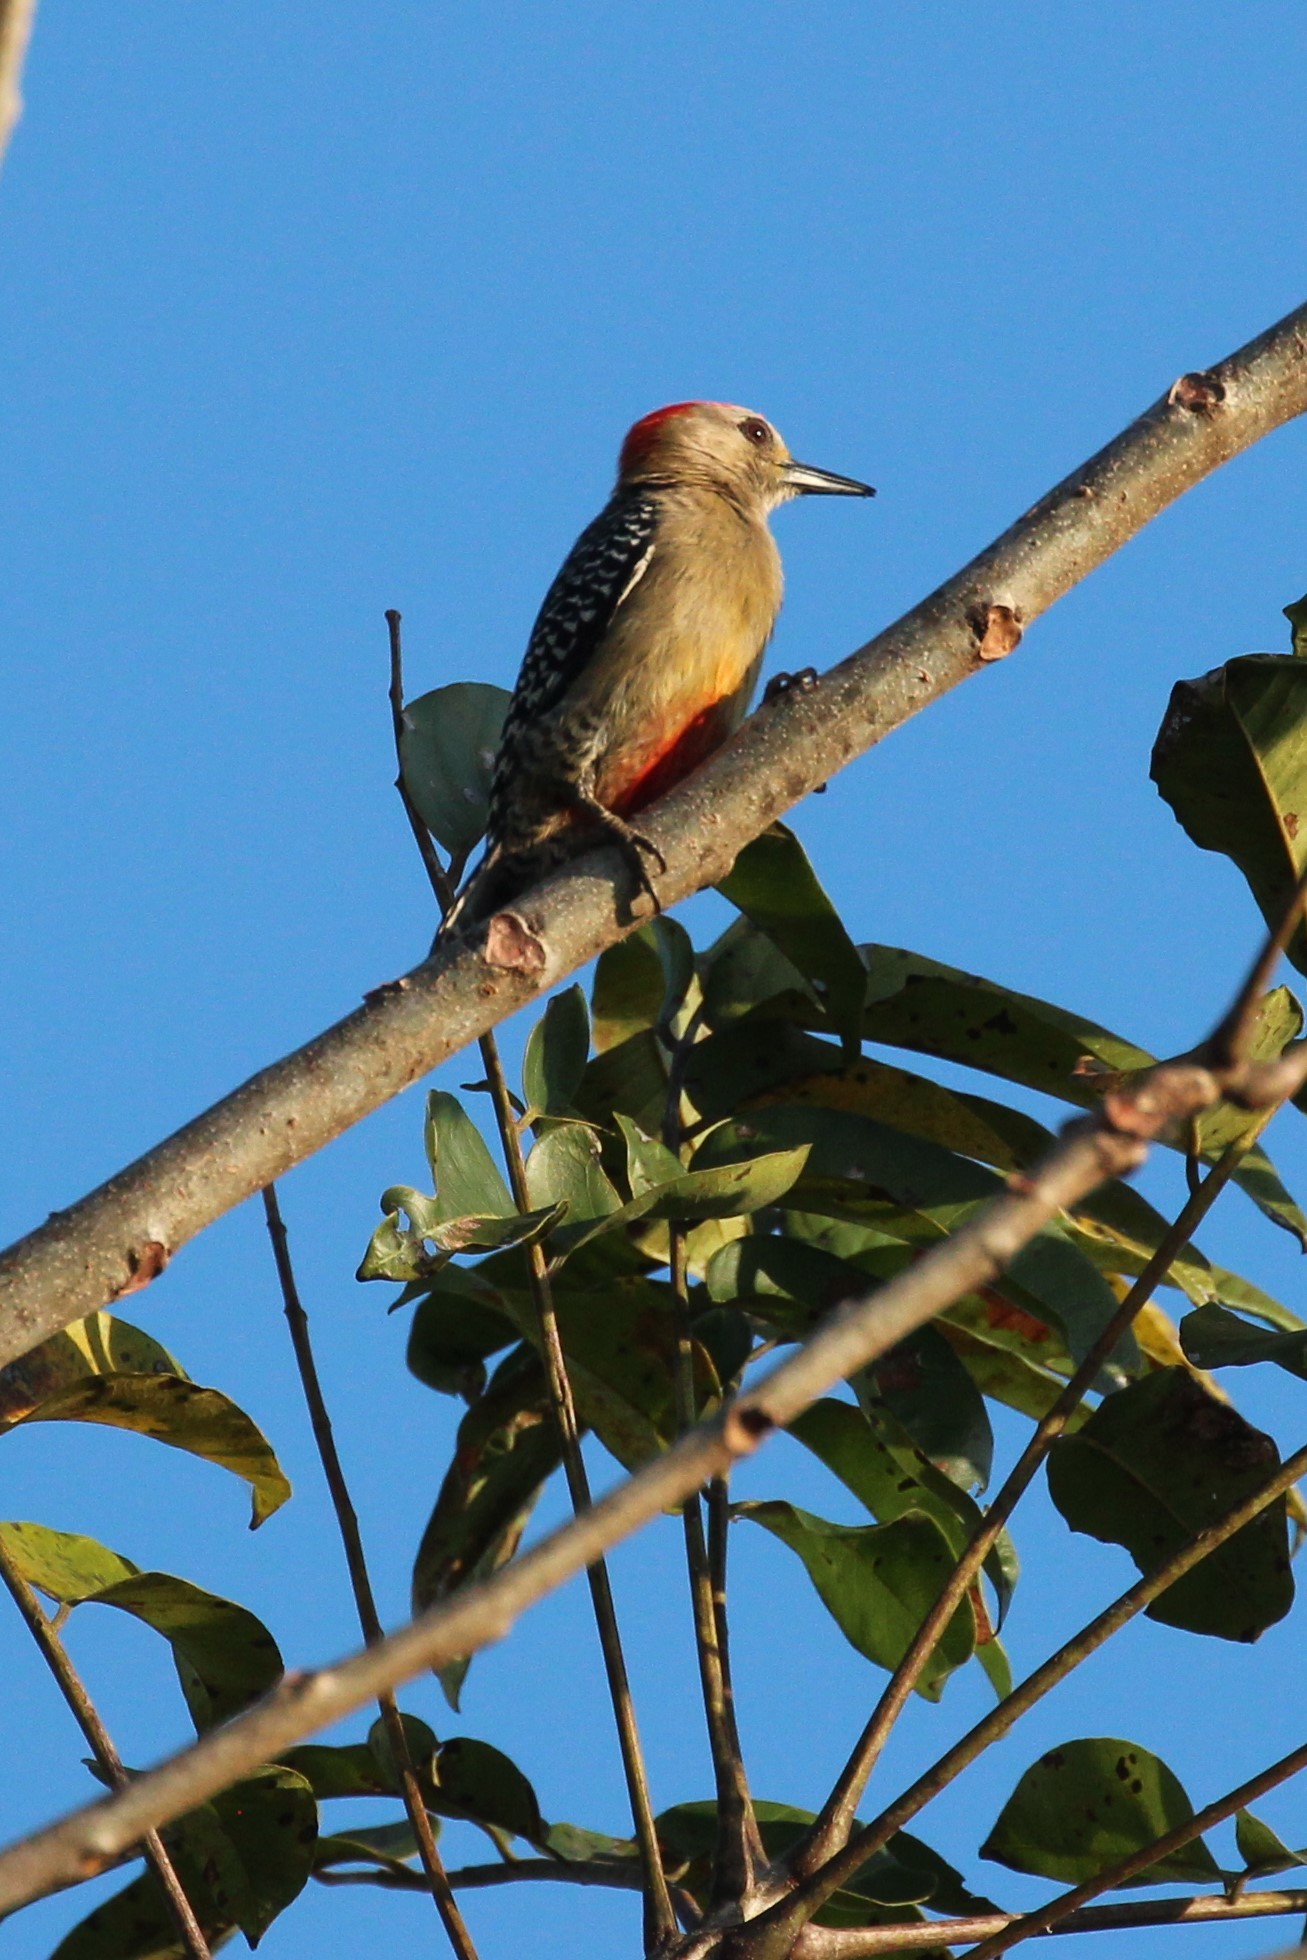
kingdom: Animalia
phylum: Chordata
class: Aves
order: Piciformes
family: Picidae
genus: Melanerpes
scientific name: Melanerpes rubricapillus
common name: Red-crowned woodpecker
